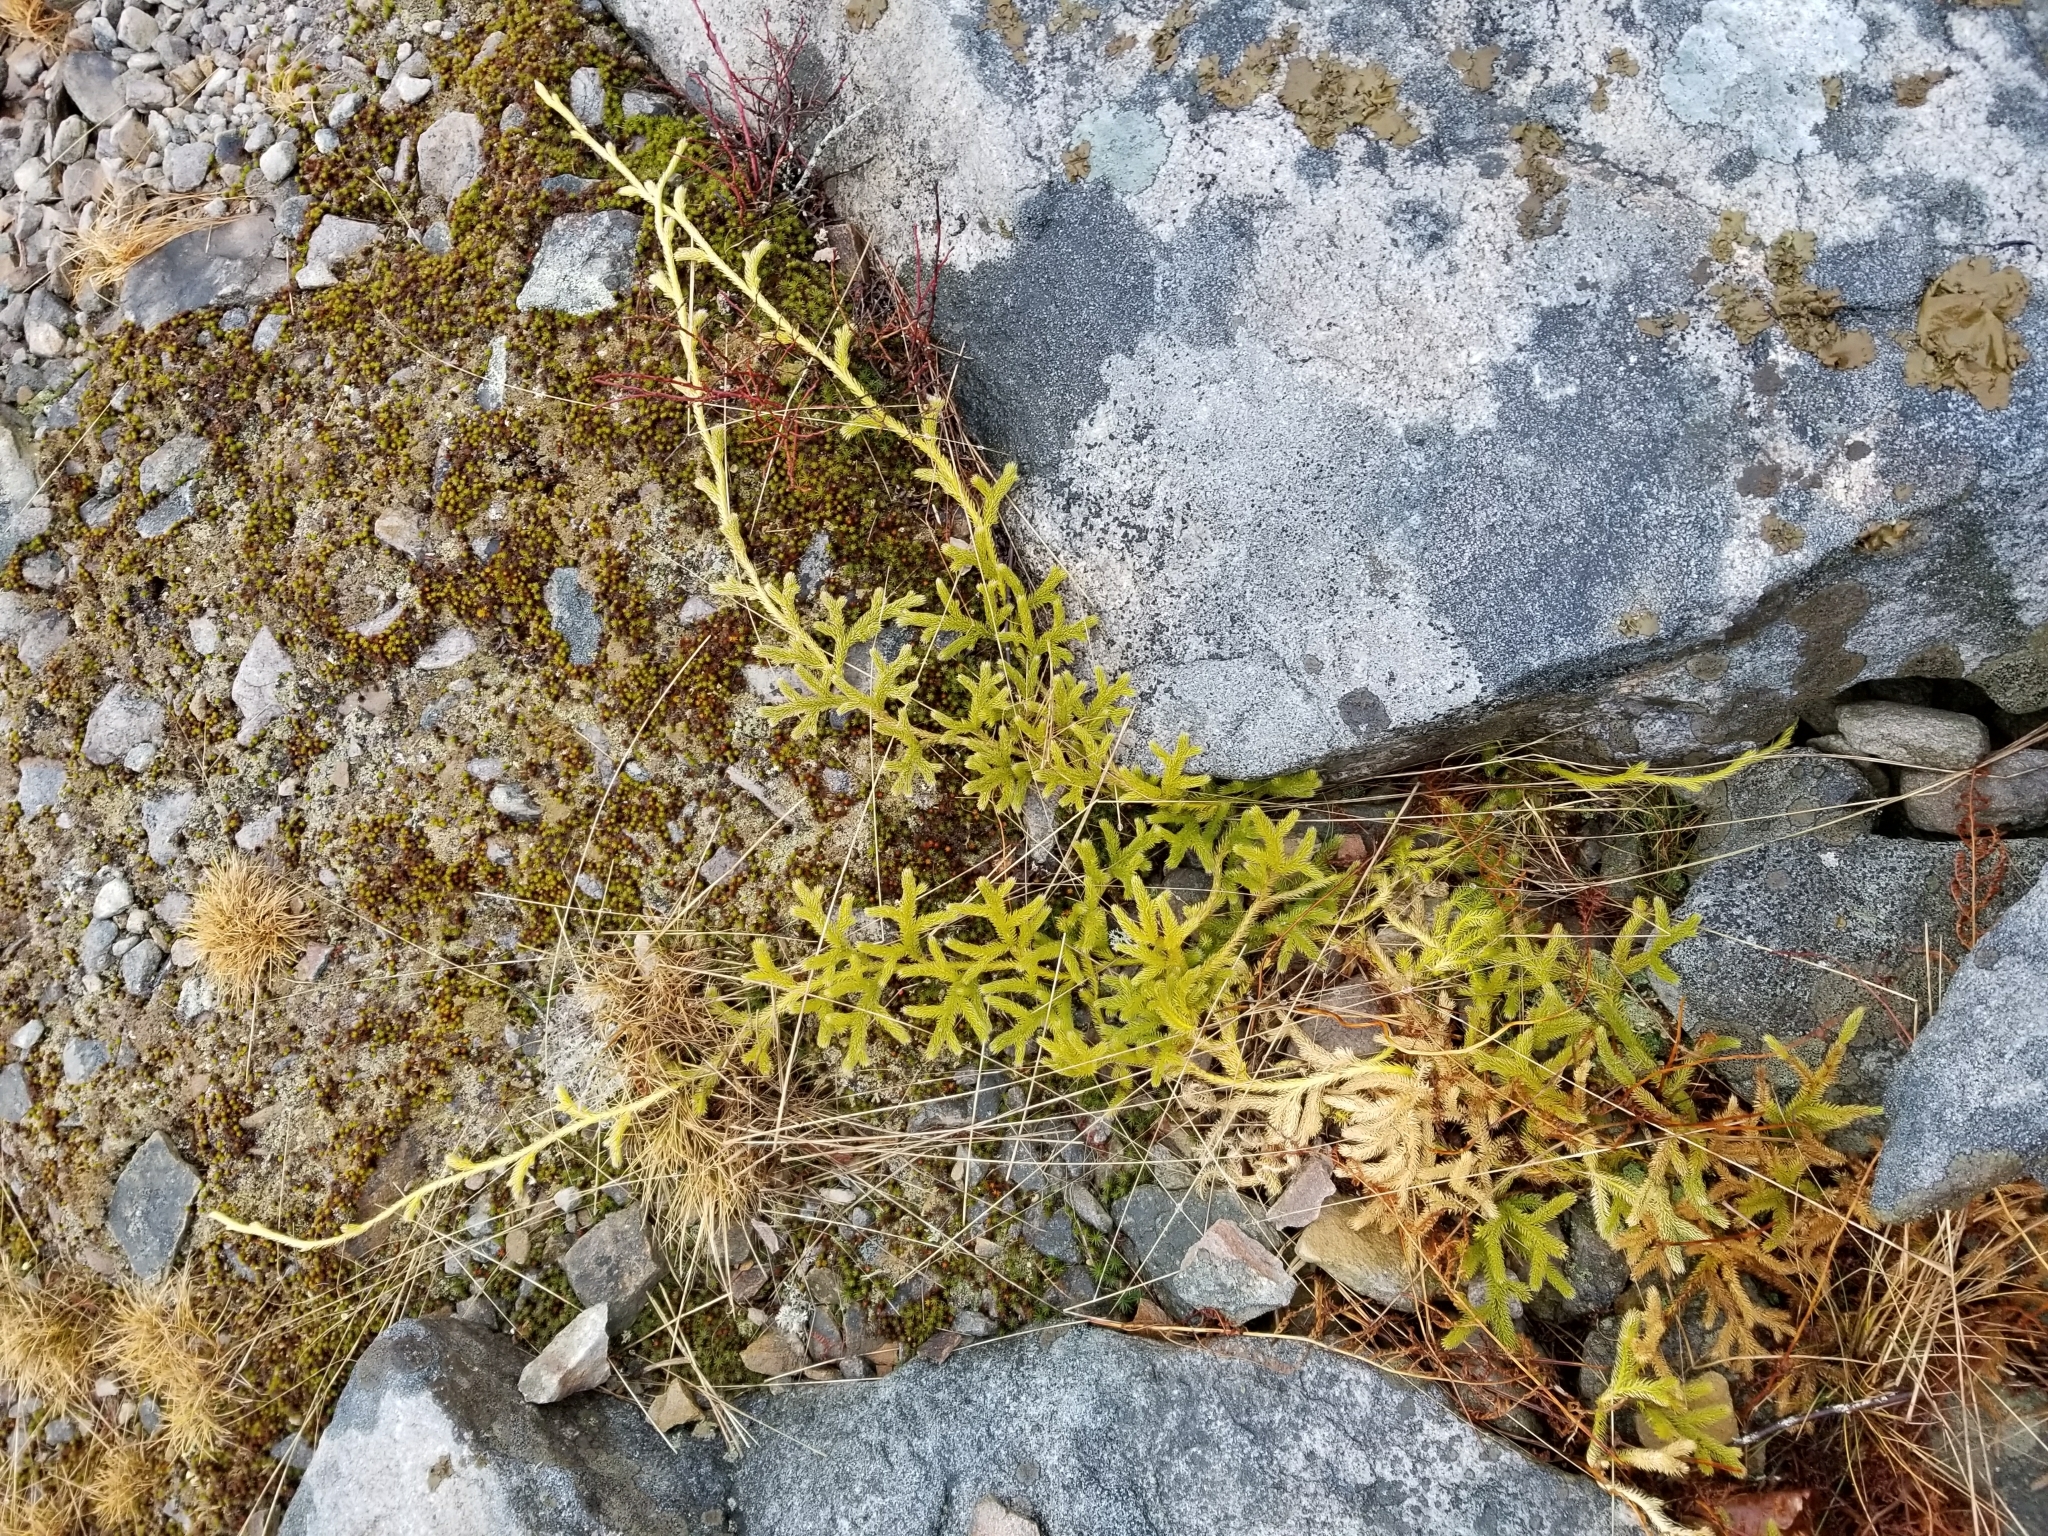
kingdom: Plantae
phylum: Tracheophyta
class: Lycopodiopsida
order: Lycopodiales
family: Lycopodiaceae
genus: Lycopodium
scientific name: Lycopodium clavatum
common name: Stag's-horn clubmoss
